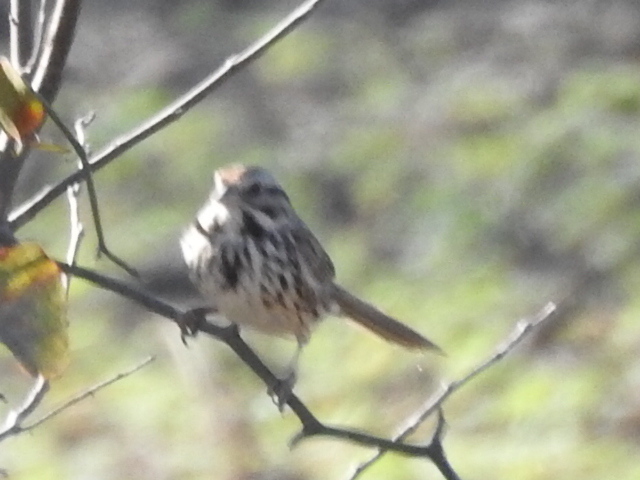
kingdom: Animalia
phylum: Chordata
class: Aves
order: Passeriformes
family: Passerellidae
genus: Melospiza
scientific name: Melospiza melodia
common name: Song sparrow
